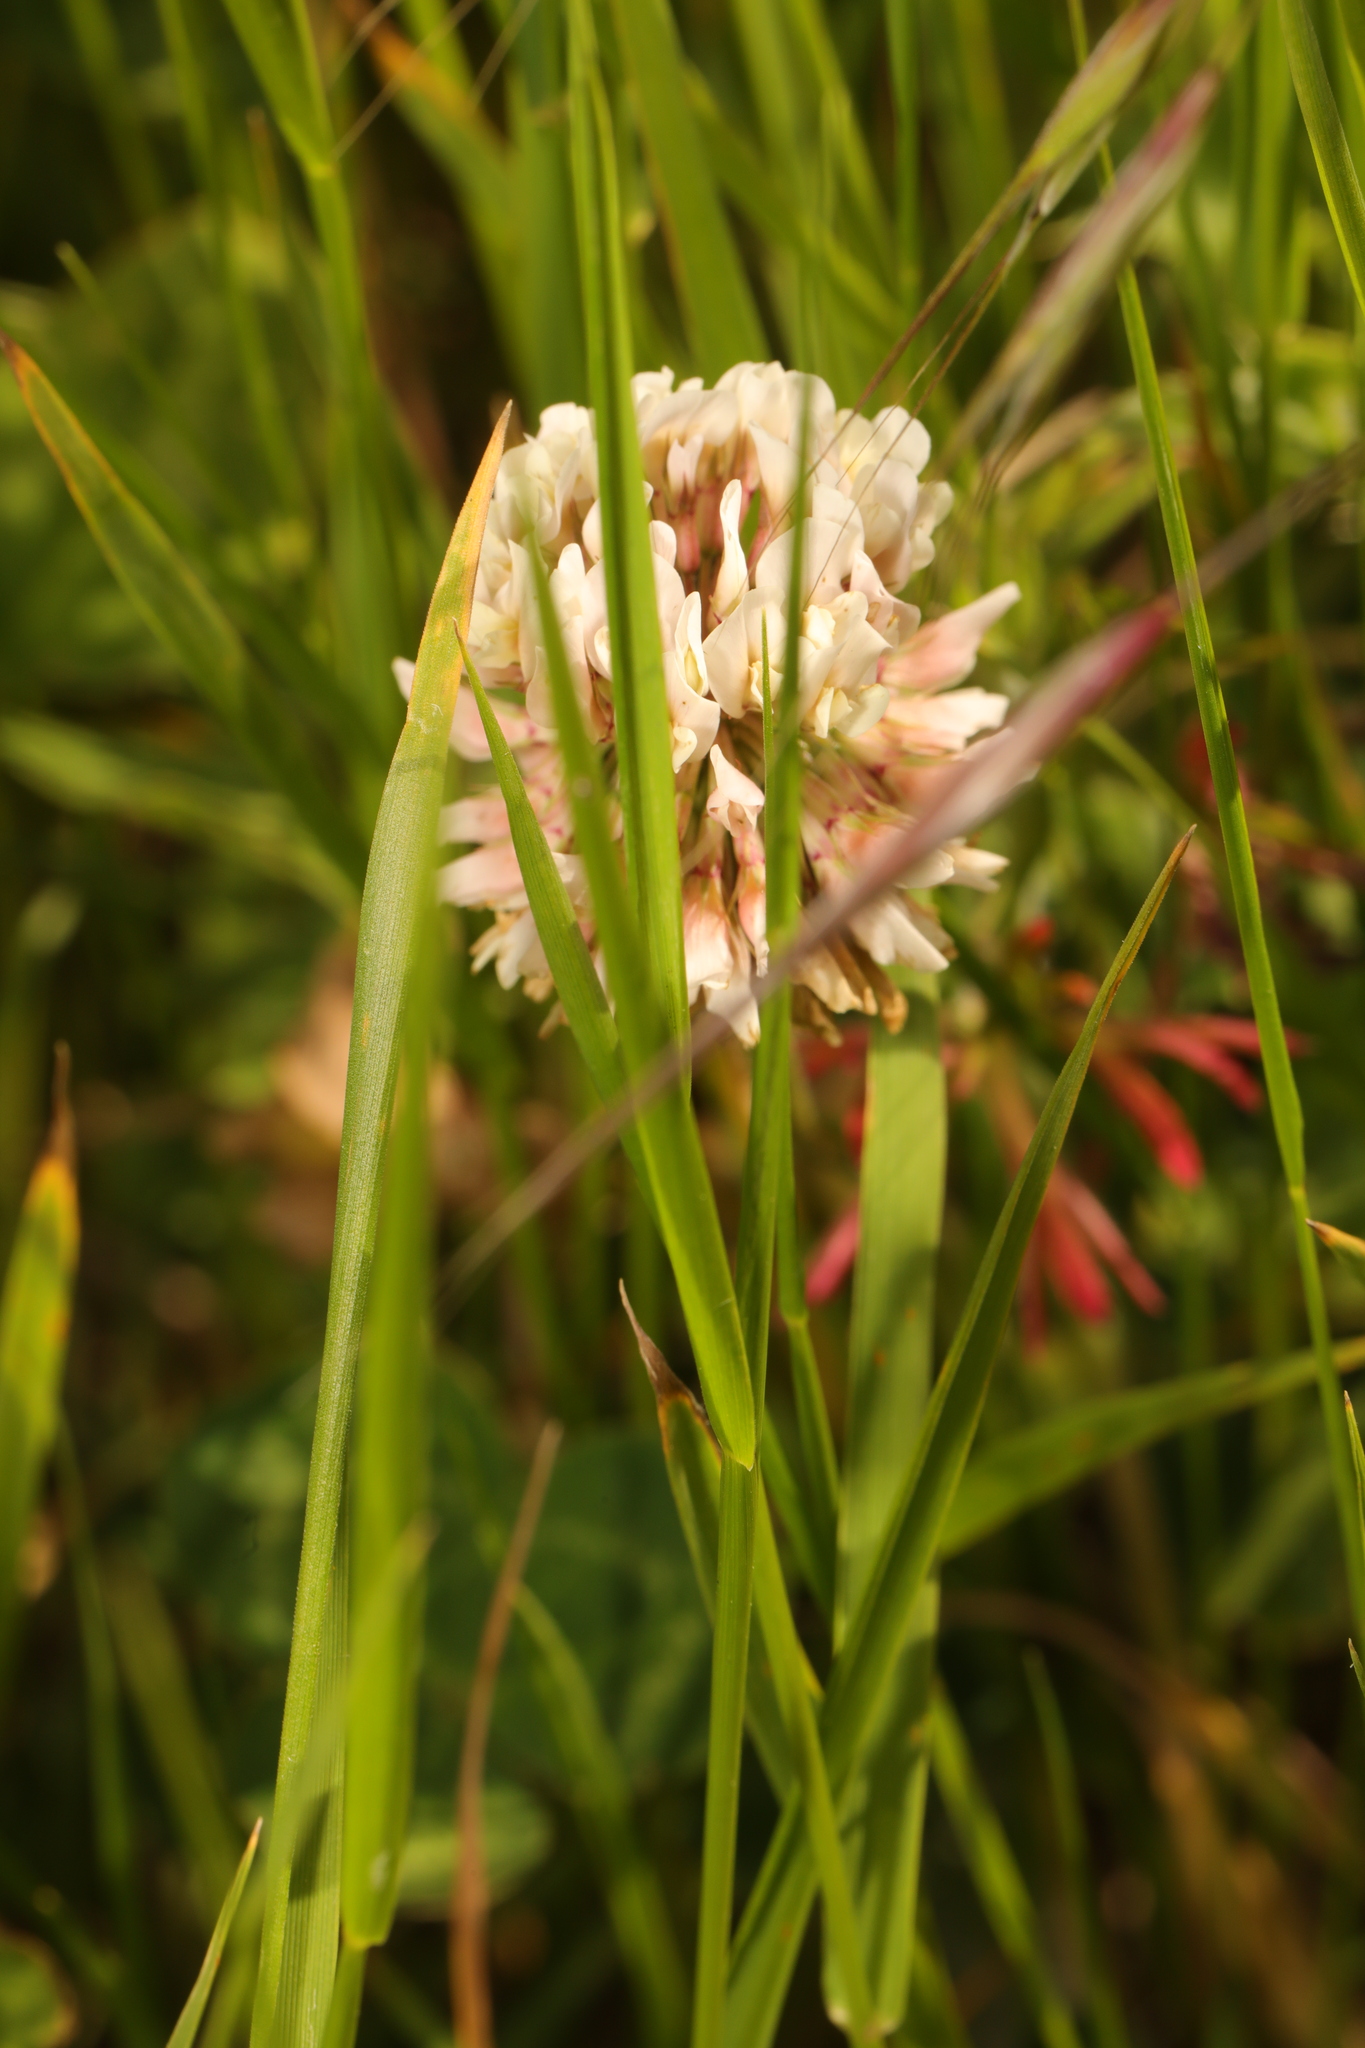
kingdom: Plantae
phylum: Tracheophyta
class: Magnoliopsida
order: Fabales
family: Fabaceae
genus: Trifolium
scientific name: Trifolium repens
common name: White clover
